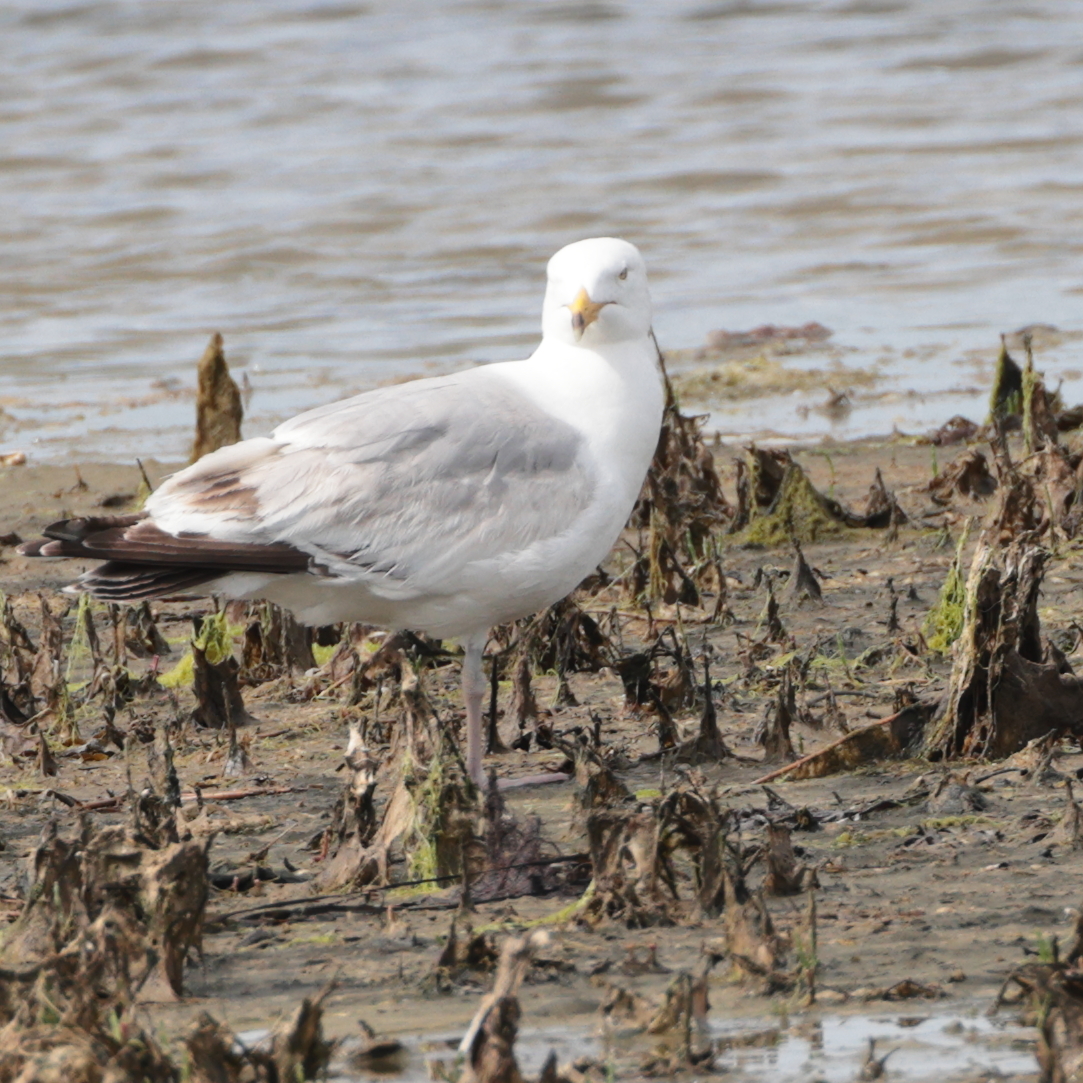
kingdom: Animalia
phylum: Chordata
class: Aves
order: Charadriiformes
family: Laridae
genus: Larus
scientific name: Larus argentatus
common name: Herring gull
